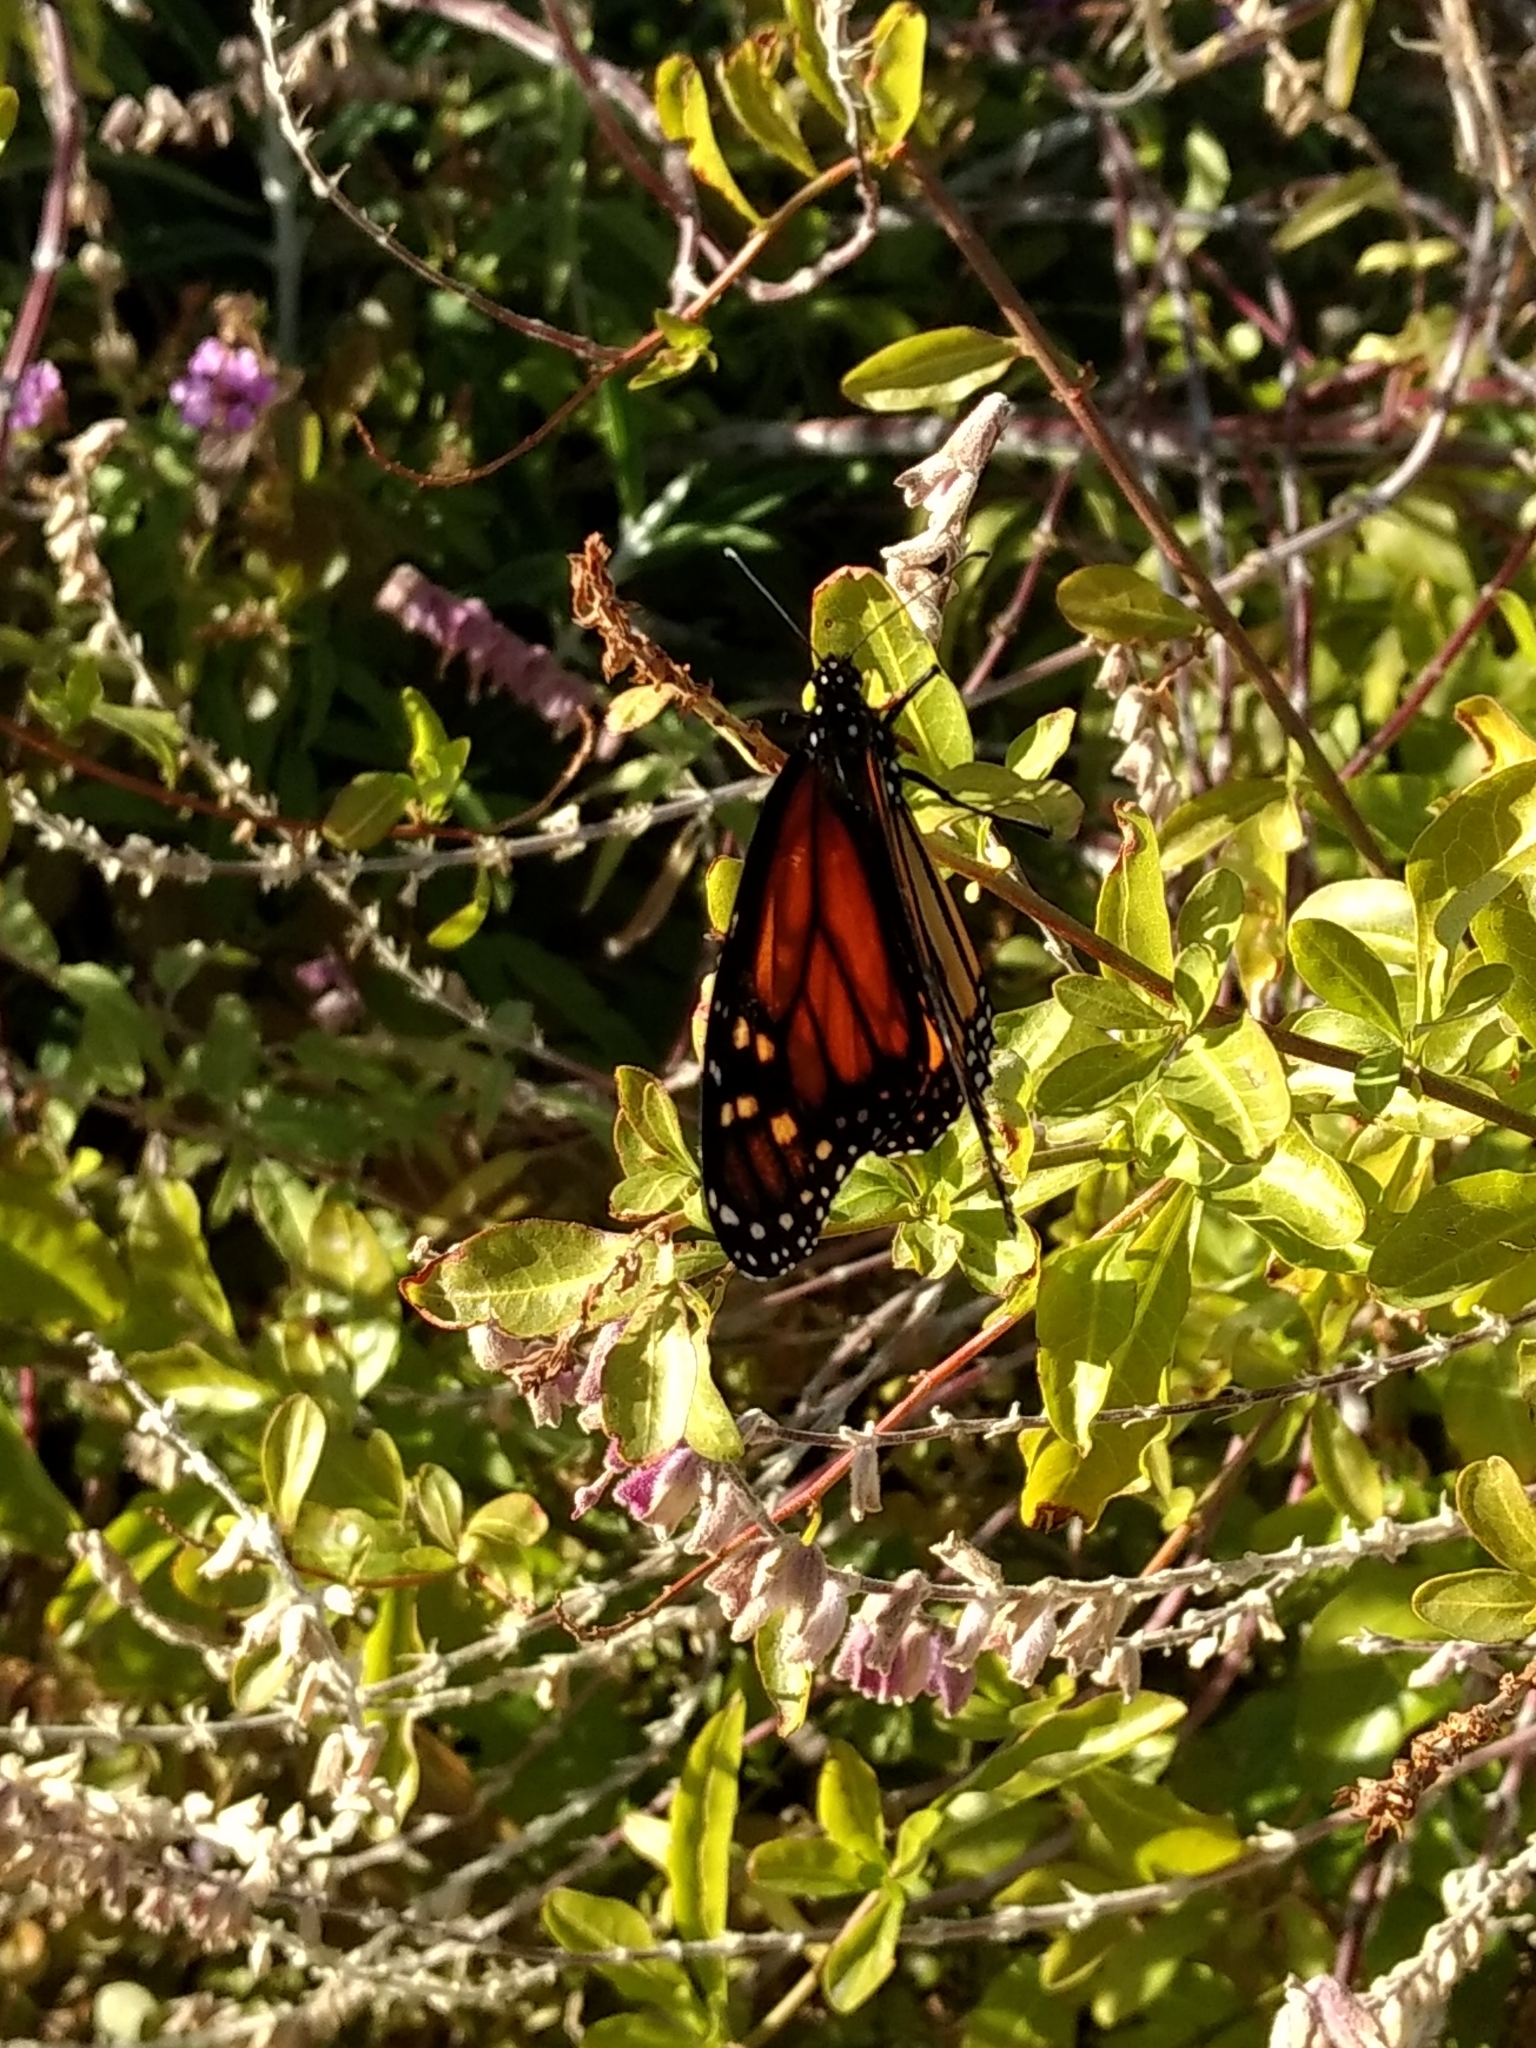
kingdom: Animalia
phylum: Arthropoda
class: Insecta
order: Lepidoptera
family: Nymphalidae
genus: Danaus
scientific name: Danaus plexippus
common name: Monarch
